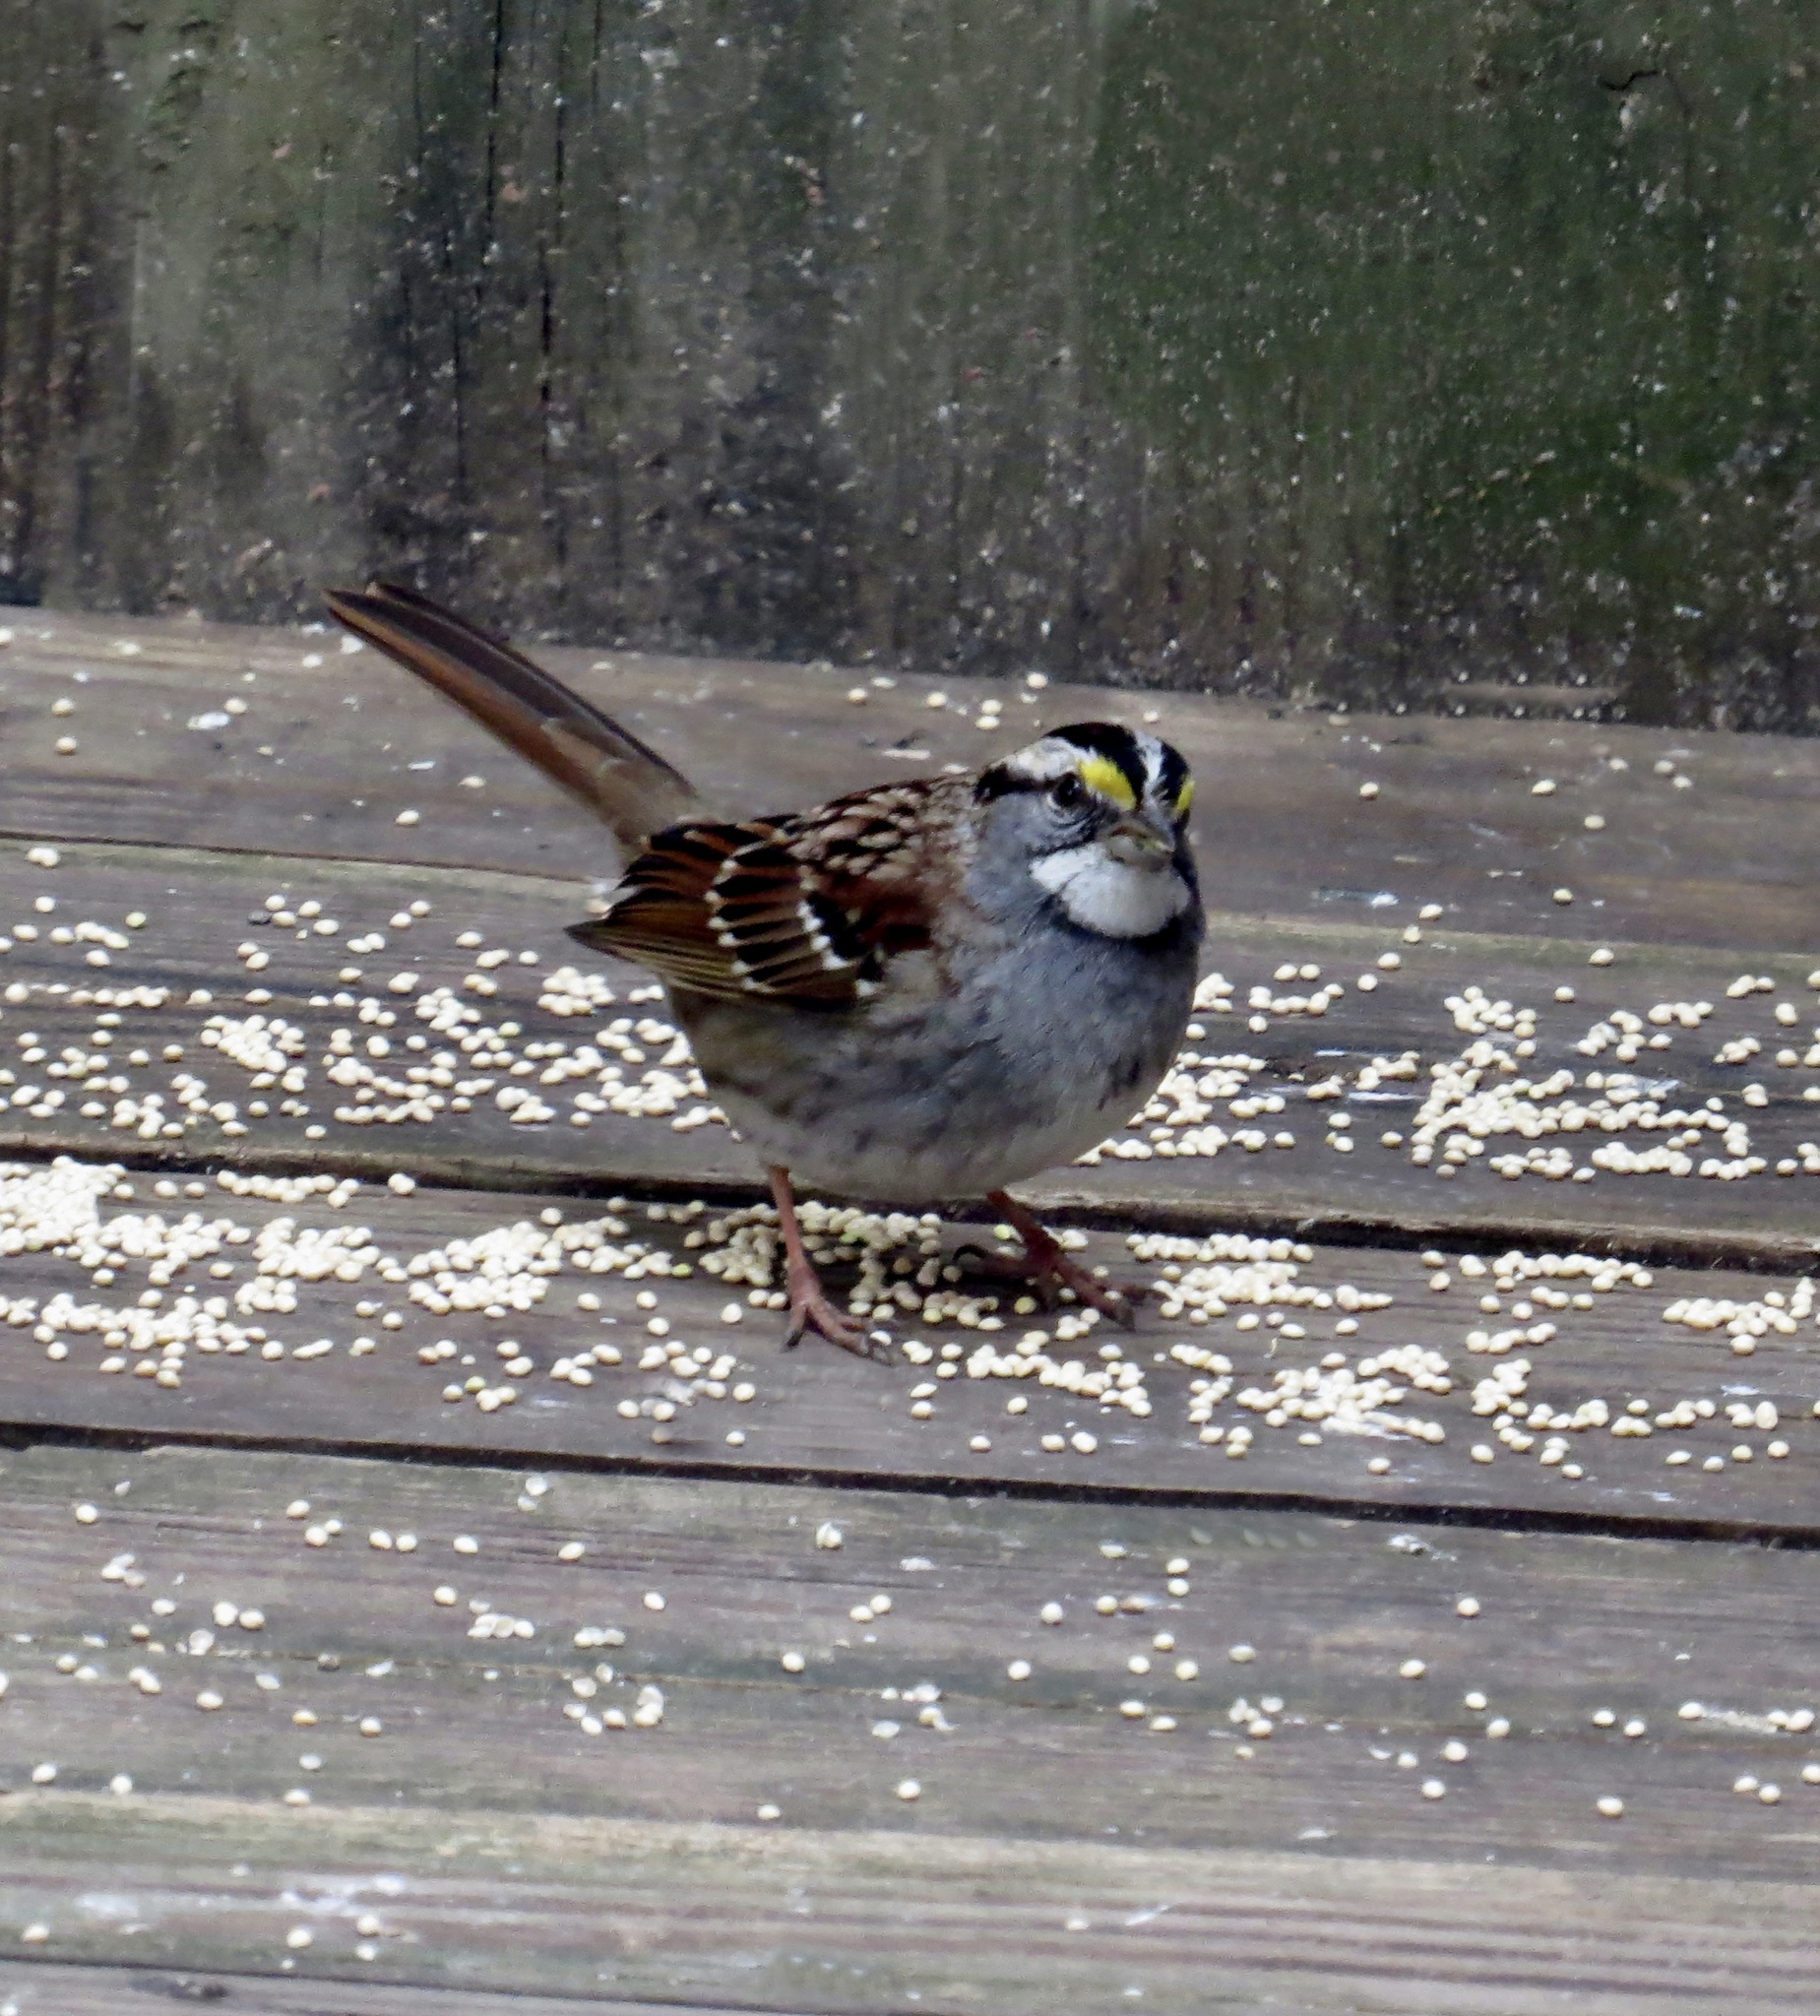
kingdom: Animalia
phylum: Chordata
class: Aves
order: Passeriformes
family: Passerellidae
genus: Zonotrichia
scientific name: Zonotrichia albicollis
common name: White-throated sparrow
